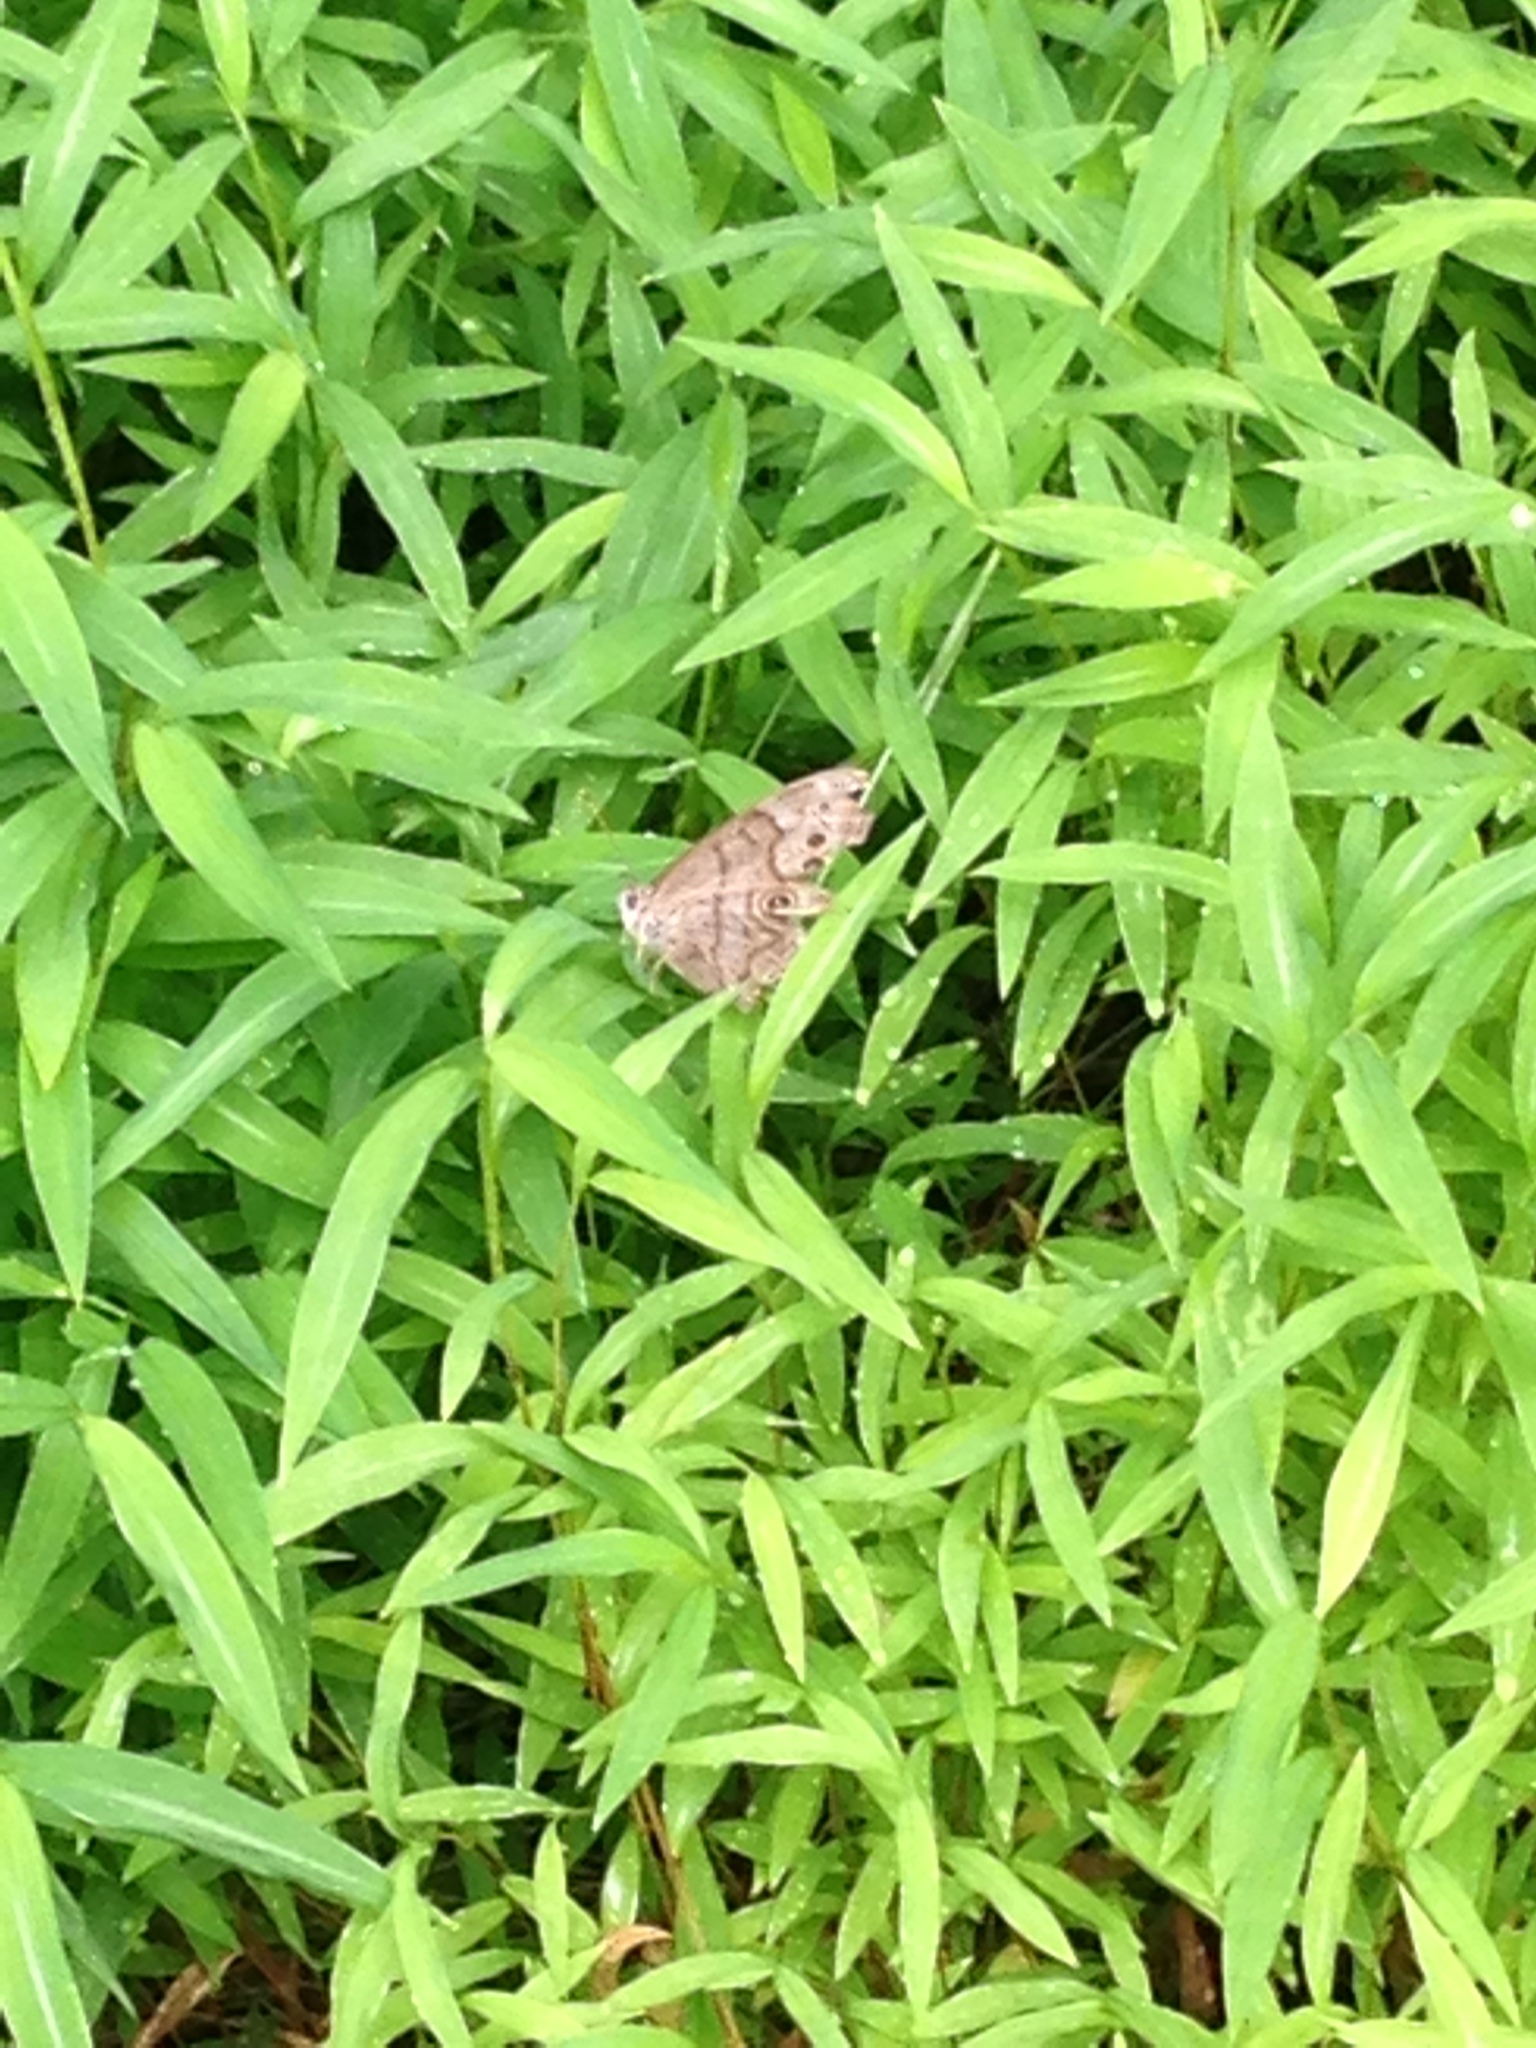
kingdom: Animalia
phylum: Arthropoda
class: Insecta
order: Lepidoptera
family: Nymphalidae
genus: Lethe
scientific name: Lethe anthedon
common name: Northern pearly-eye
